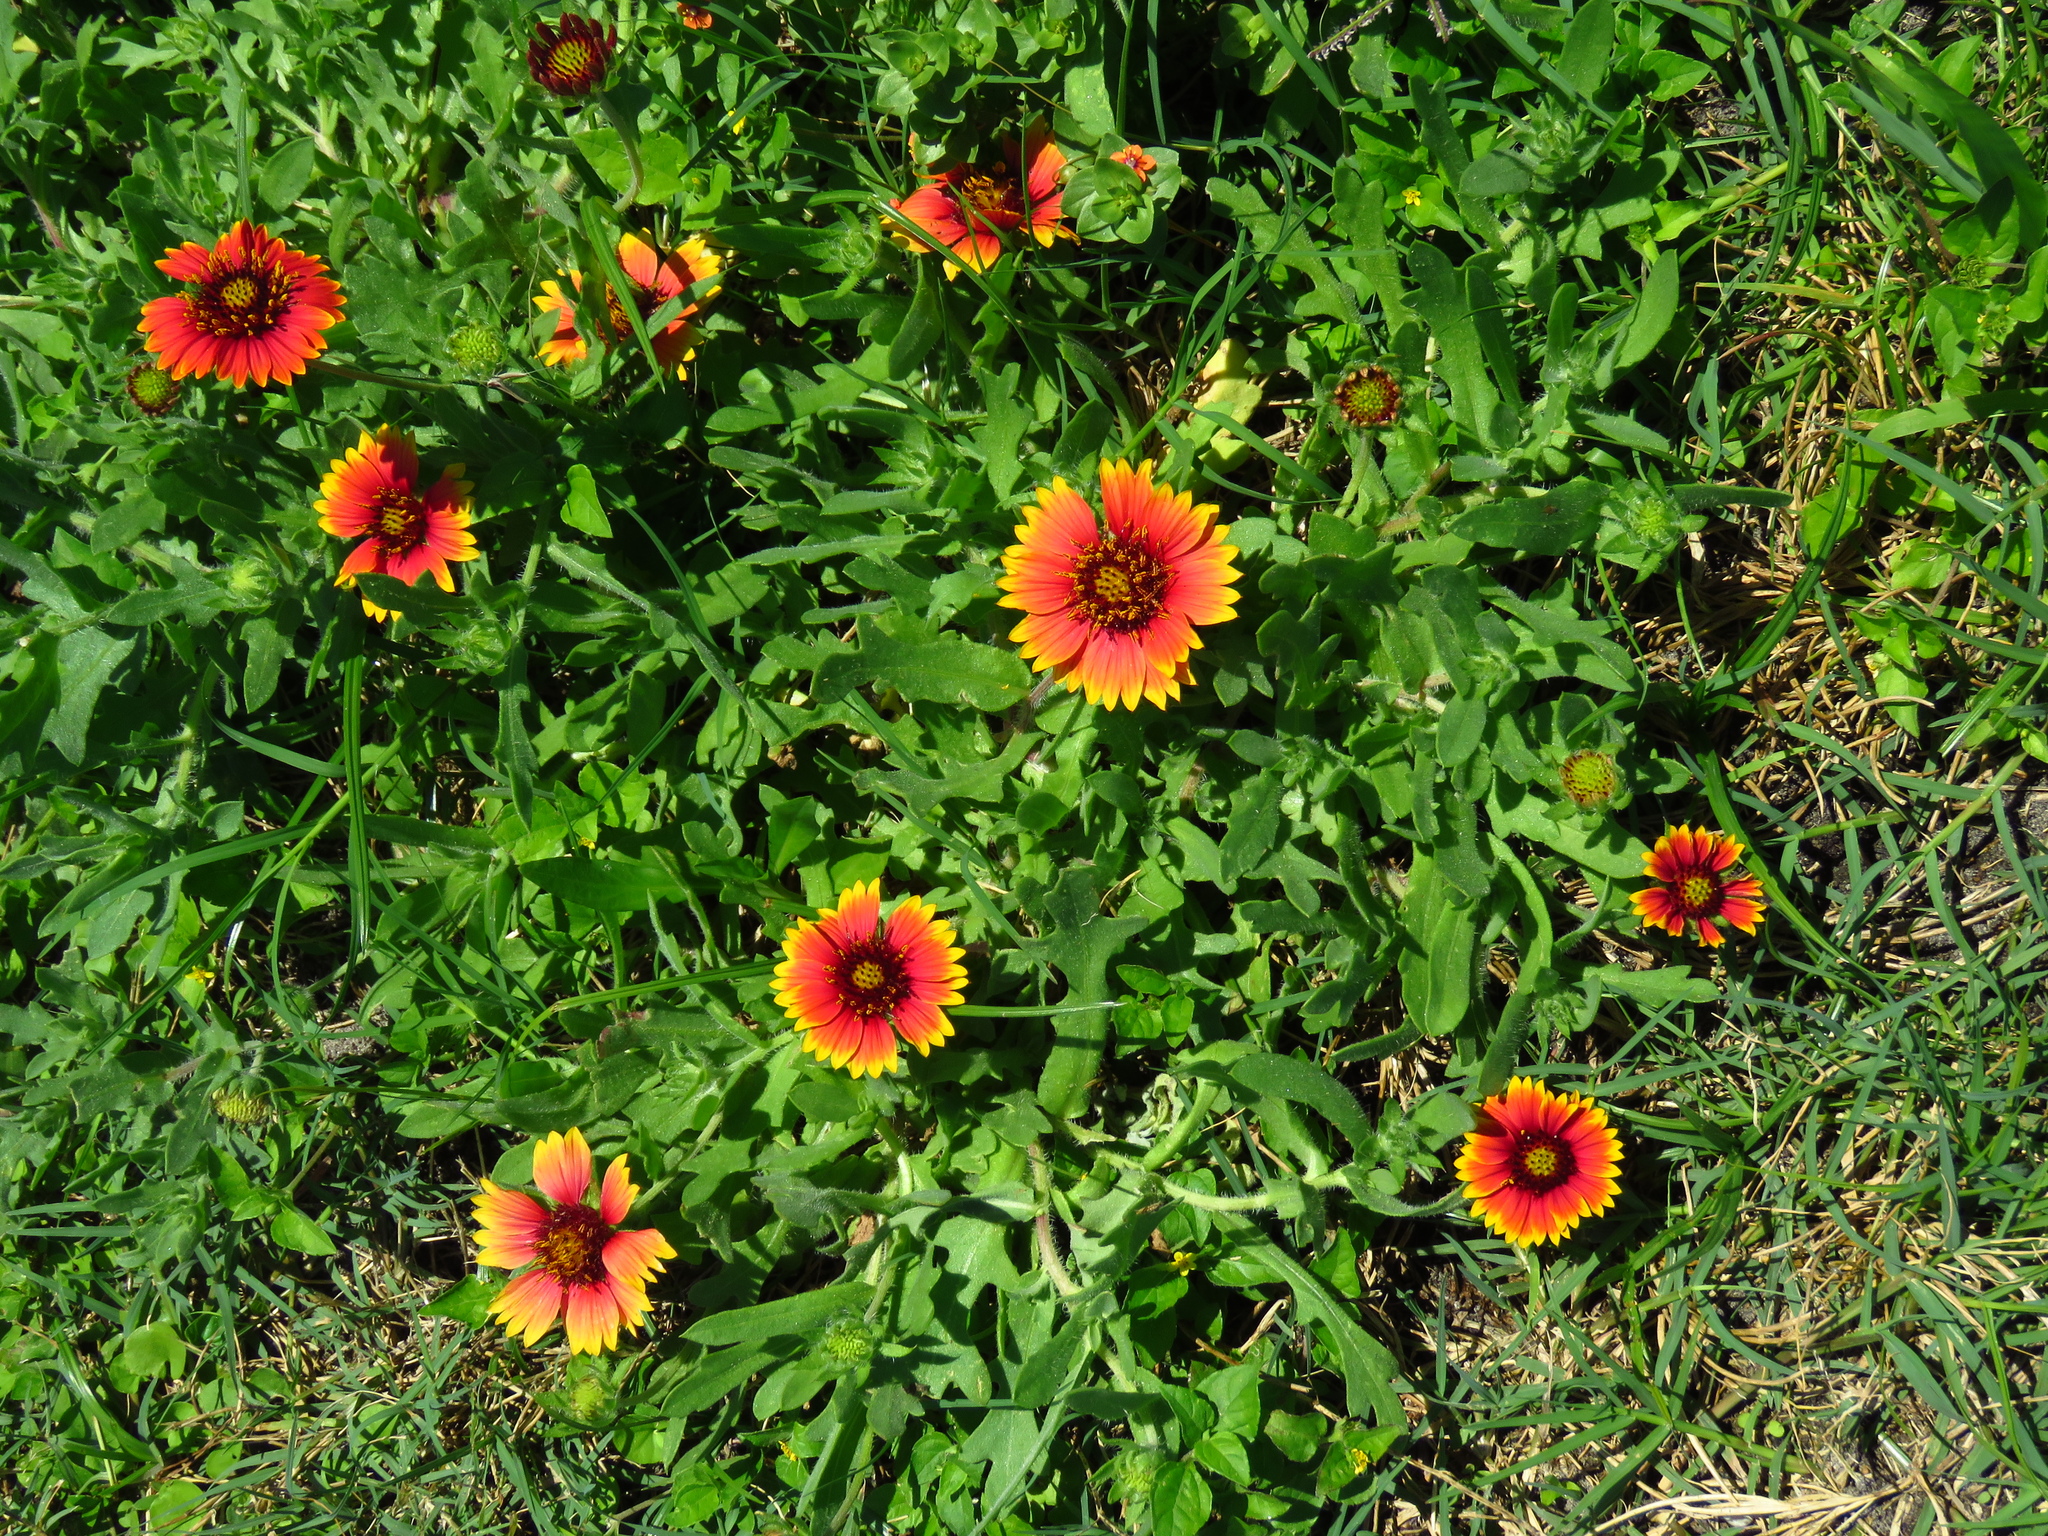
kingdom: Plantae
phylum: Tracheophyta
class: Magnoliopsida
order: Asterales
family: Asteraceae
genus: Gaillardia
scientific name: Gaillardia pulchella
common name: Firewheel
